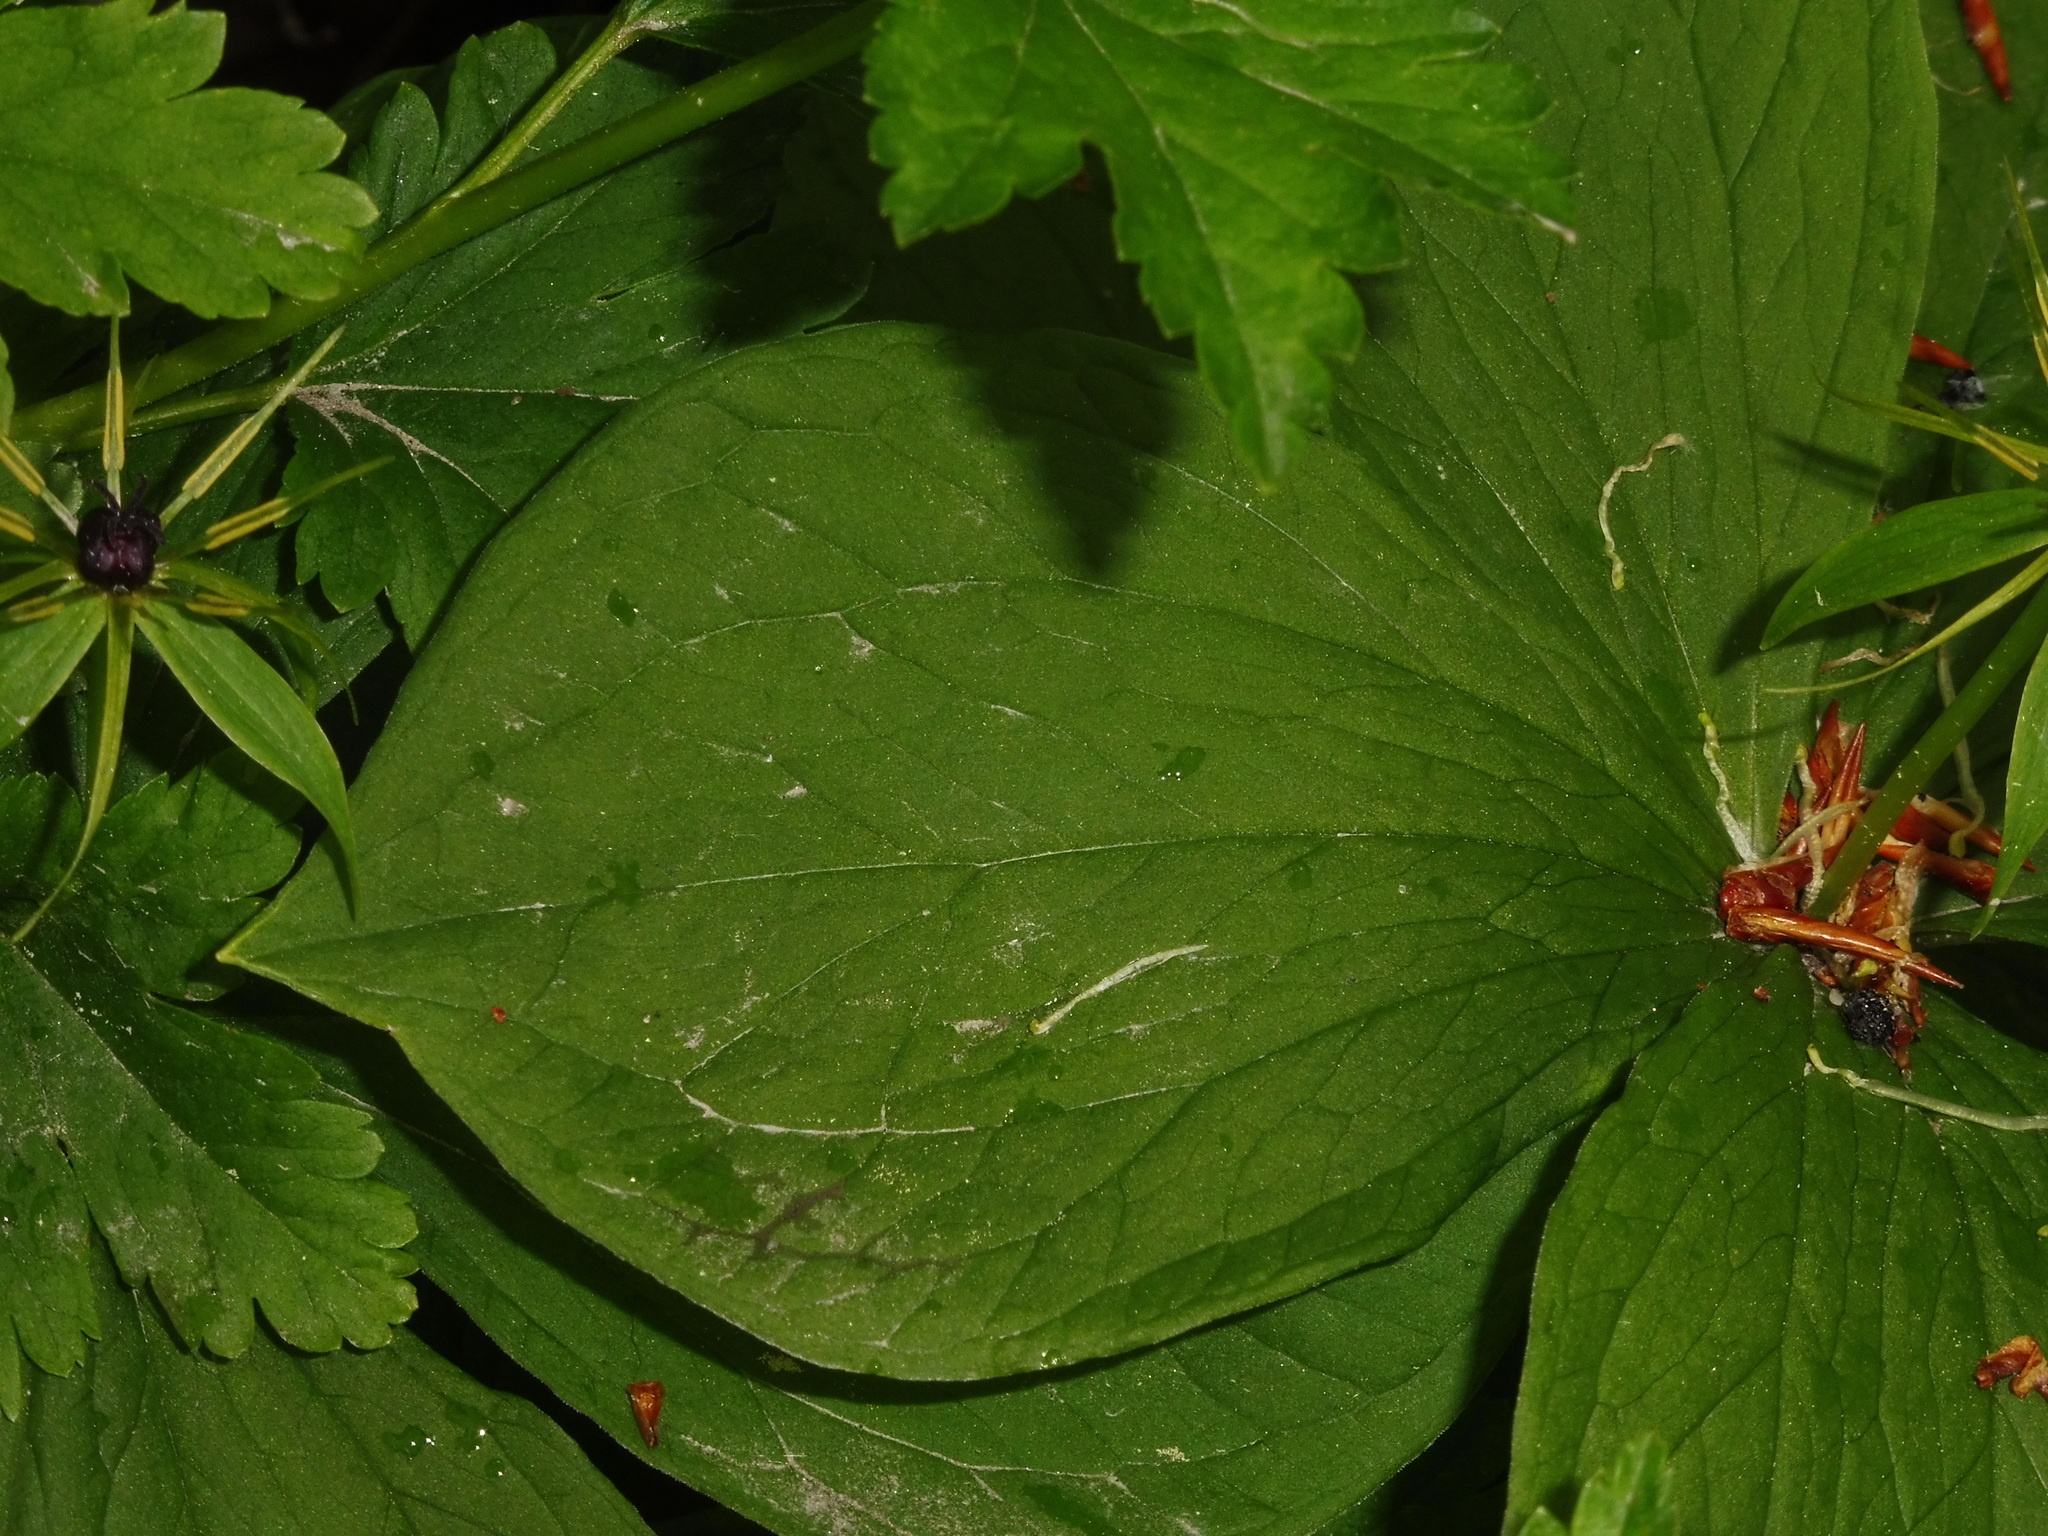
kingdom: Plantae
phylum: Tracheophyta
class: Liliopsida
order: Liliales
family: Melanthiaceae
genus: Paris
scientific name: Paris quadrifolia
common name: Herb-paris
